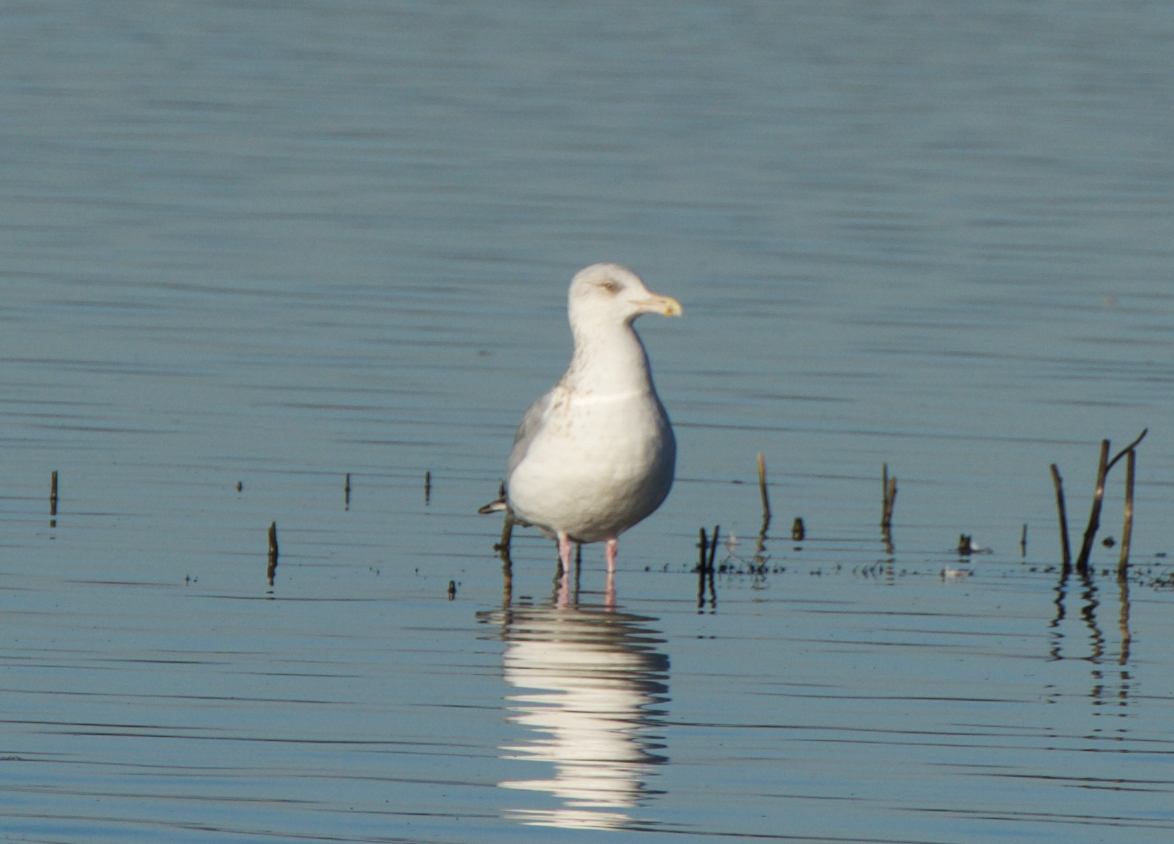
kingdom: Animalia
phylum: Chordata
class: Aves
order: Charadriiformes
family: Laridae
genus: Larus
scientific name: Larus argentatus
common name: Herring gull
